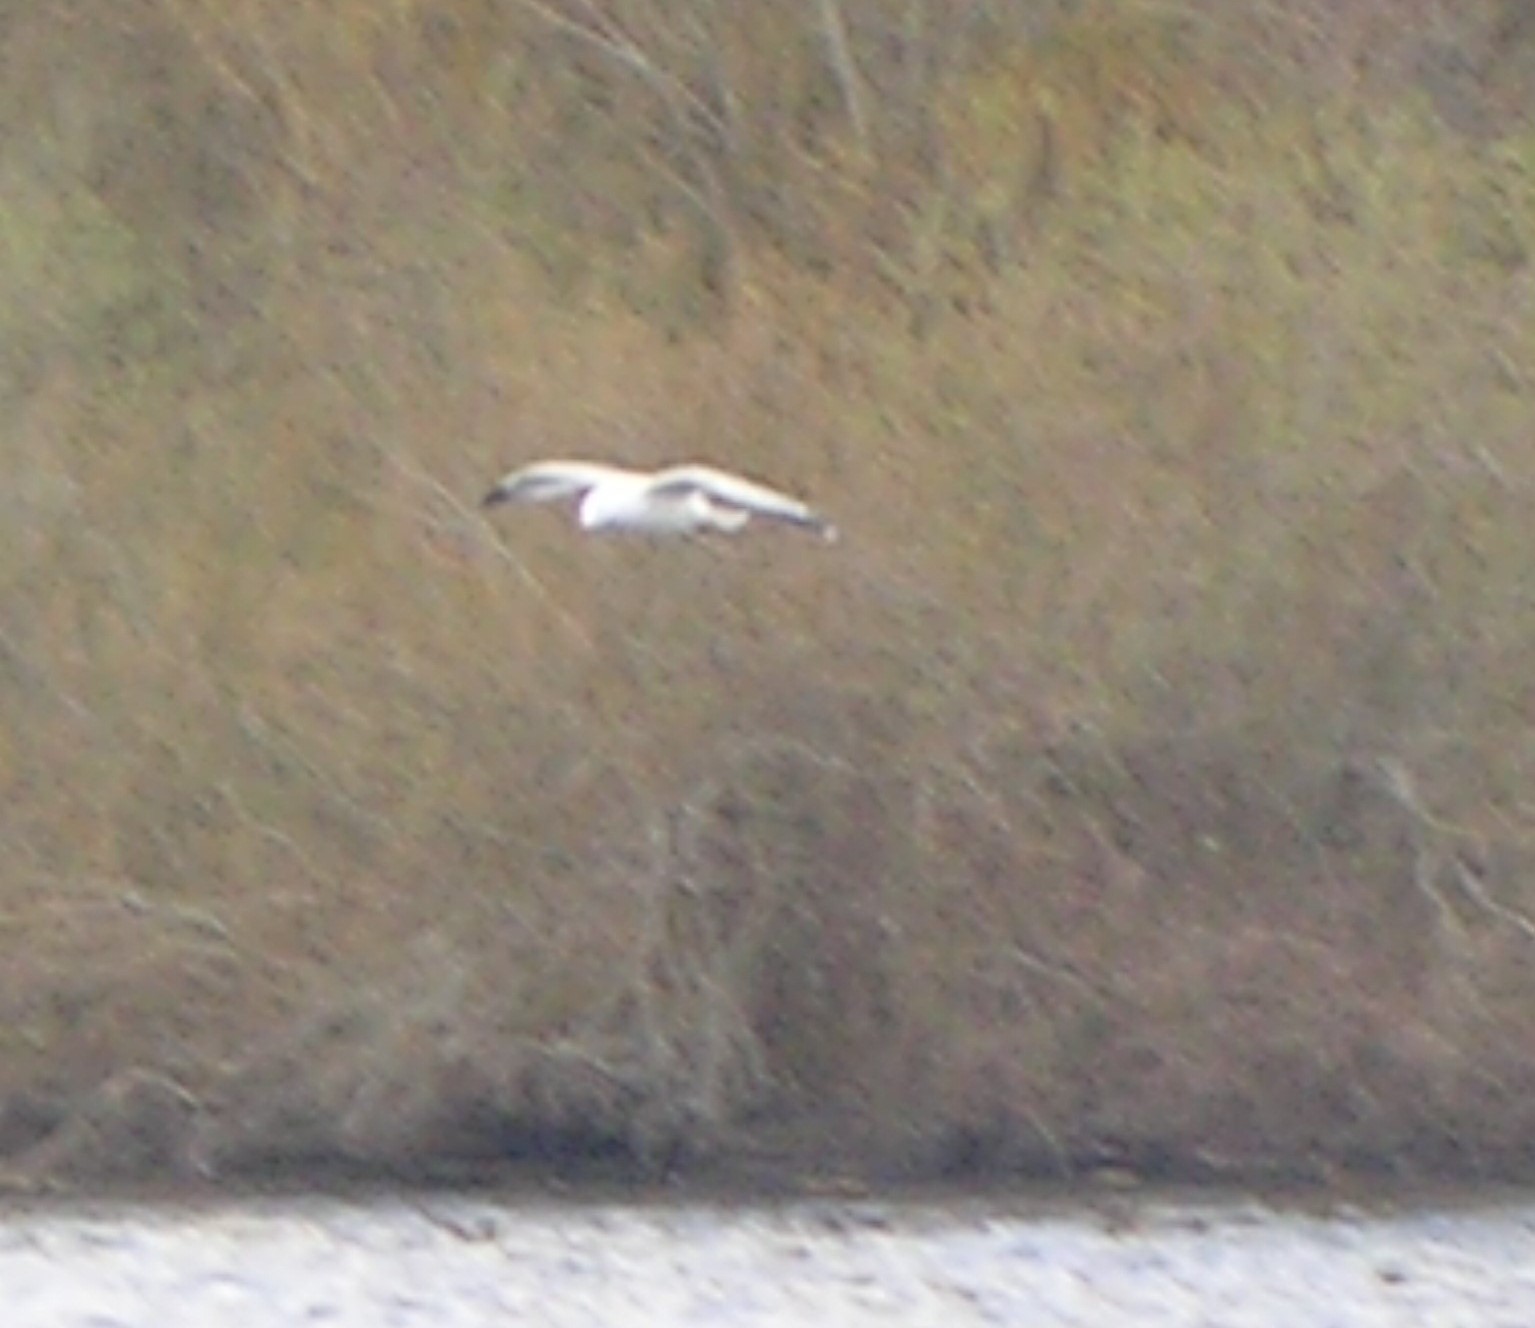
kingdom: Animalia
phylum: Chordata
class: Aves
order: Charadriiformes
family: Laridae
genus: Larus
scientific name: Larus brachyrhynchus
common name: Short-billed gull
